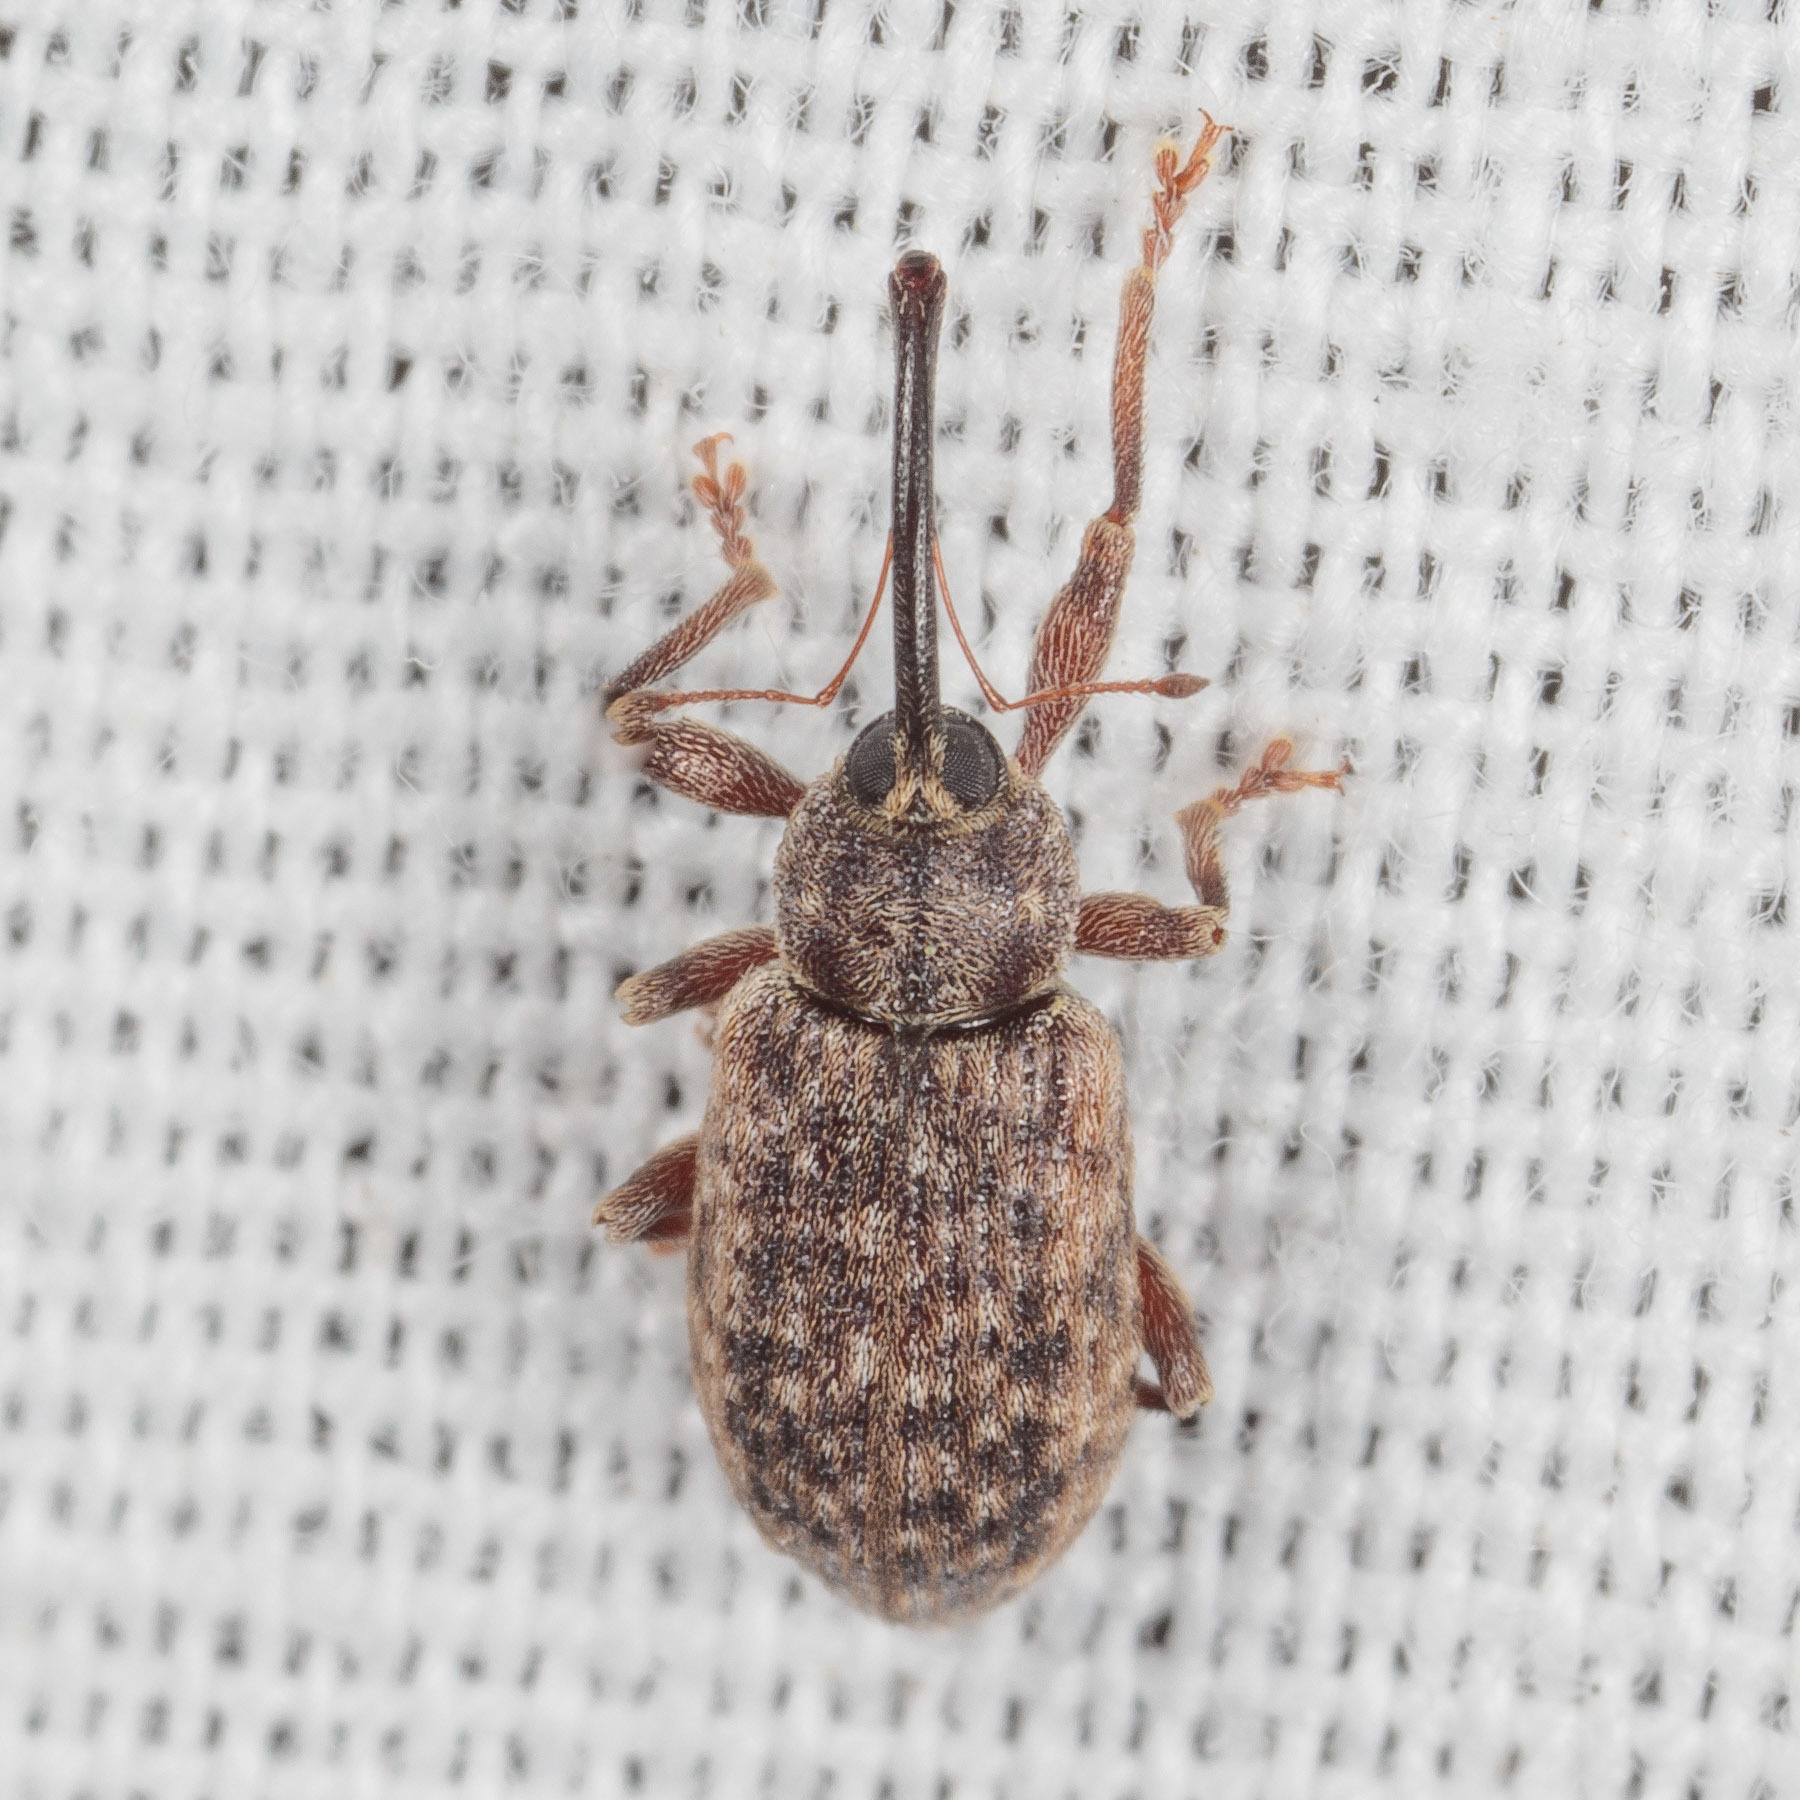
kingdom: Animalia
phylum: Arthropoda
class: Insecta
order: Coleoptera
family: Curculionidae
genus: Dorytomus
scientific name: Dorytomus mucidus
